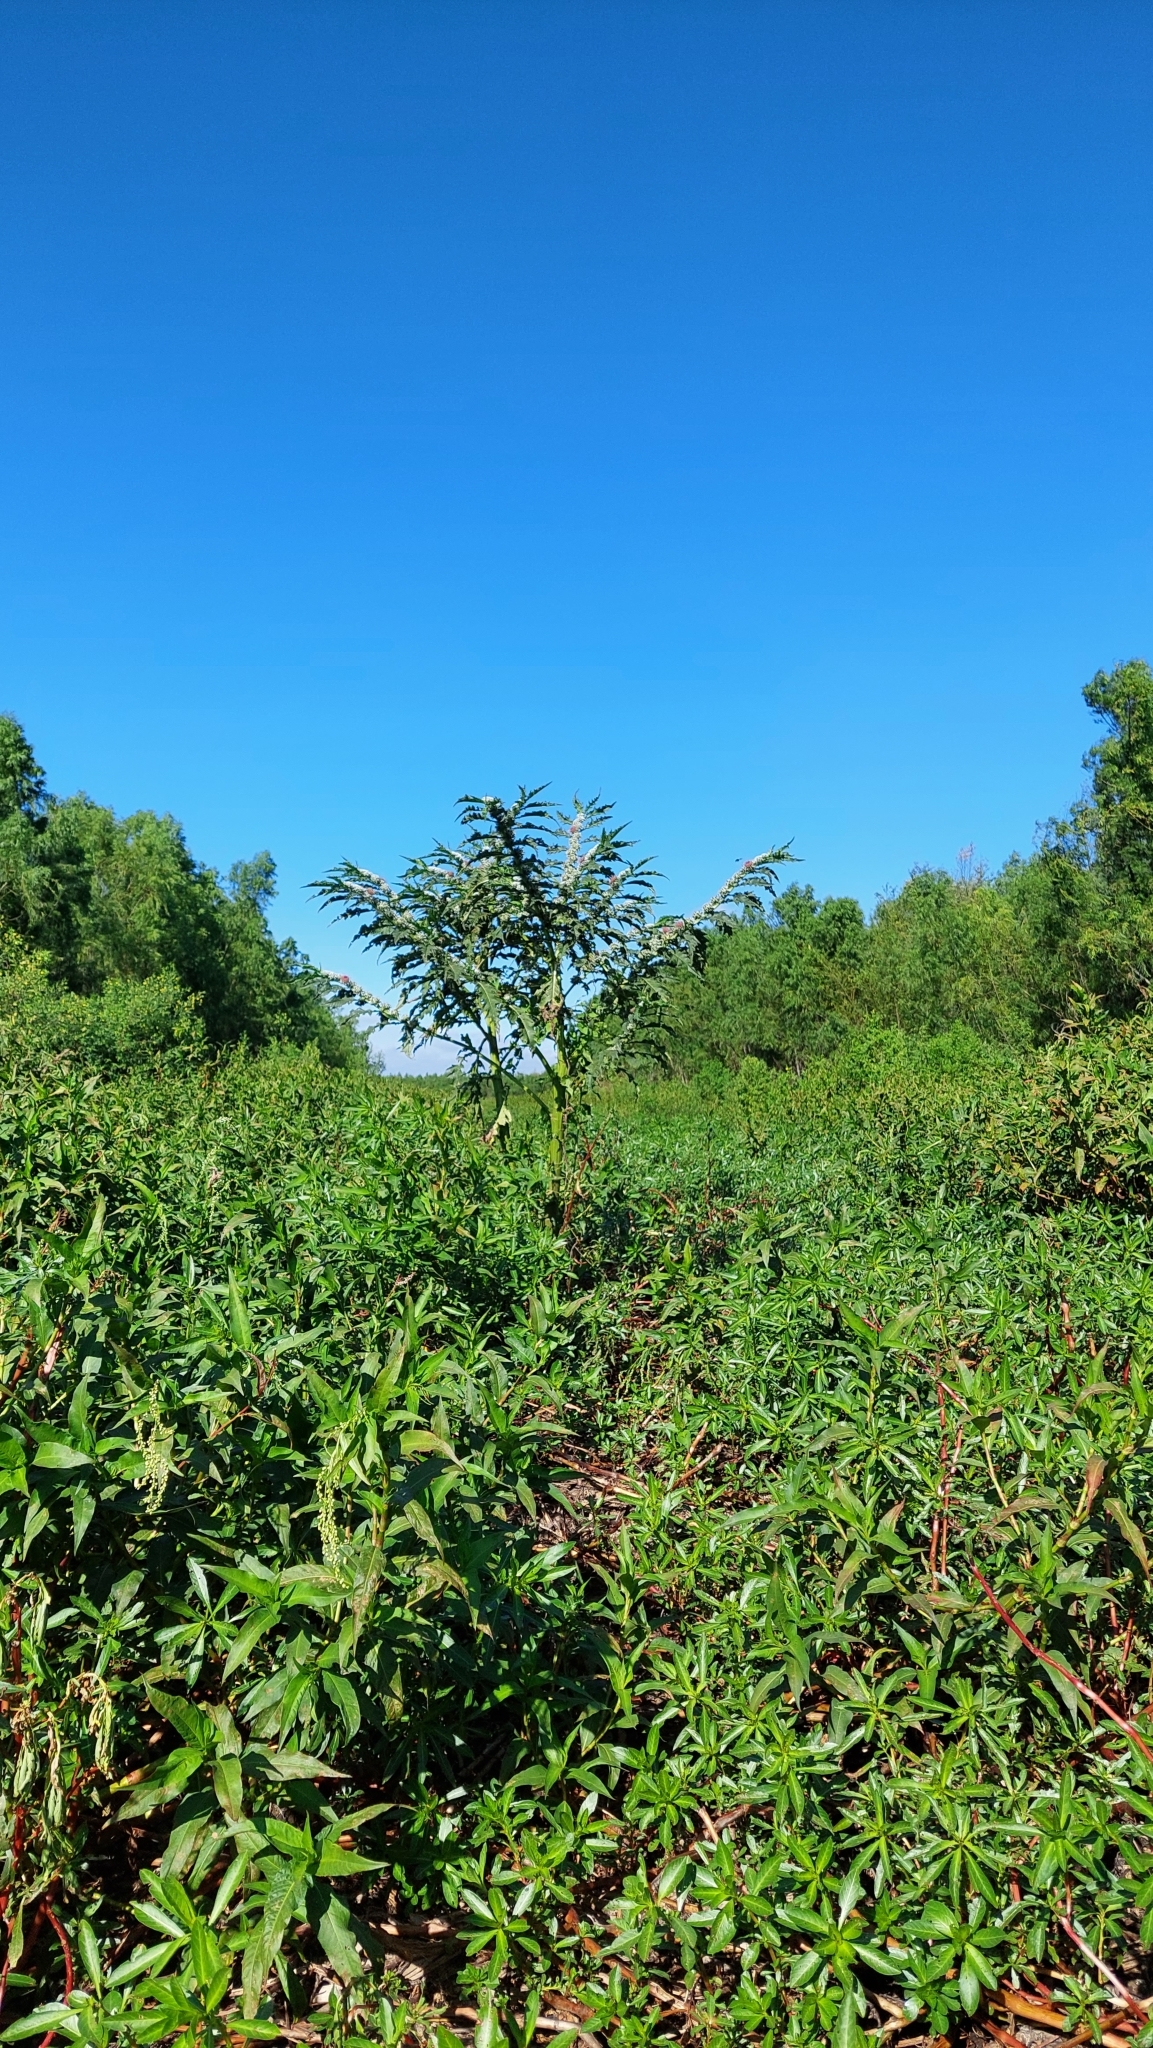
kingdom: Plantae
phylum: Tracheophyta
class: Magnoliopsida
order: Myrtales
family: Onagraceae
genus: Ludwigia
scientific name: Ludwigia peploides
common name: Floating primrose-willow
